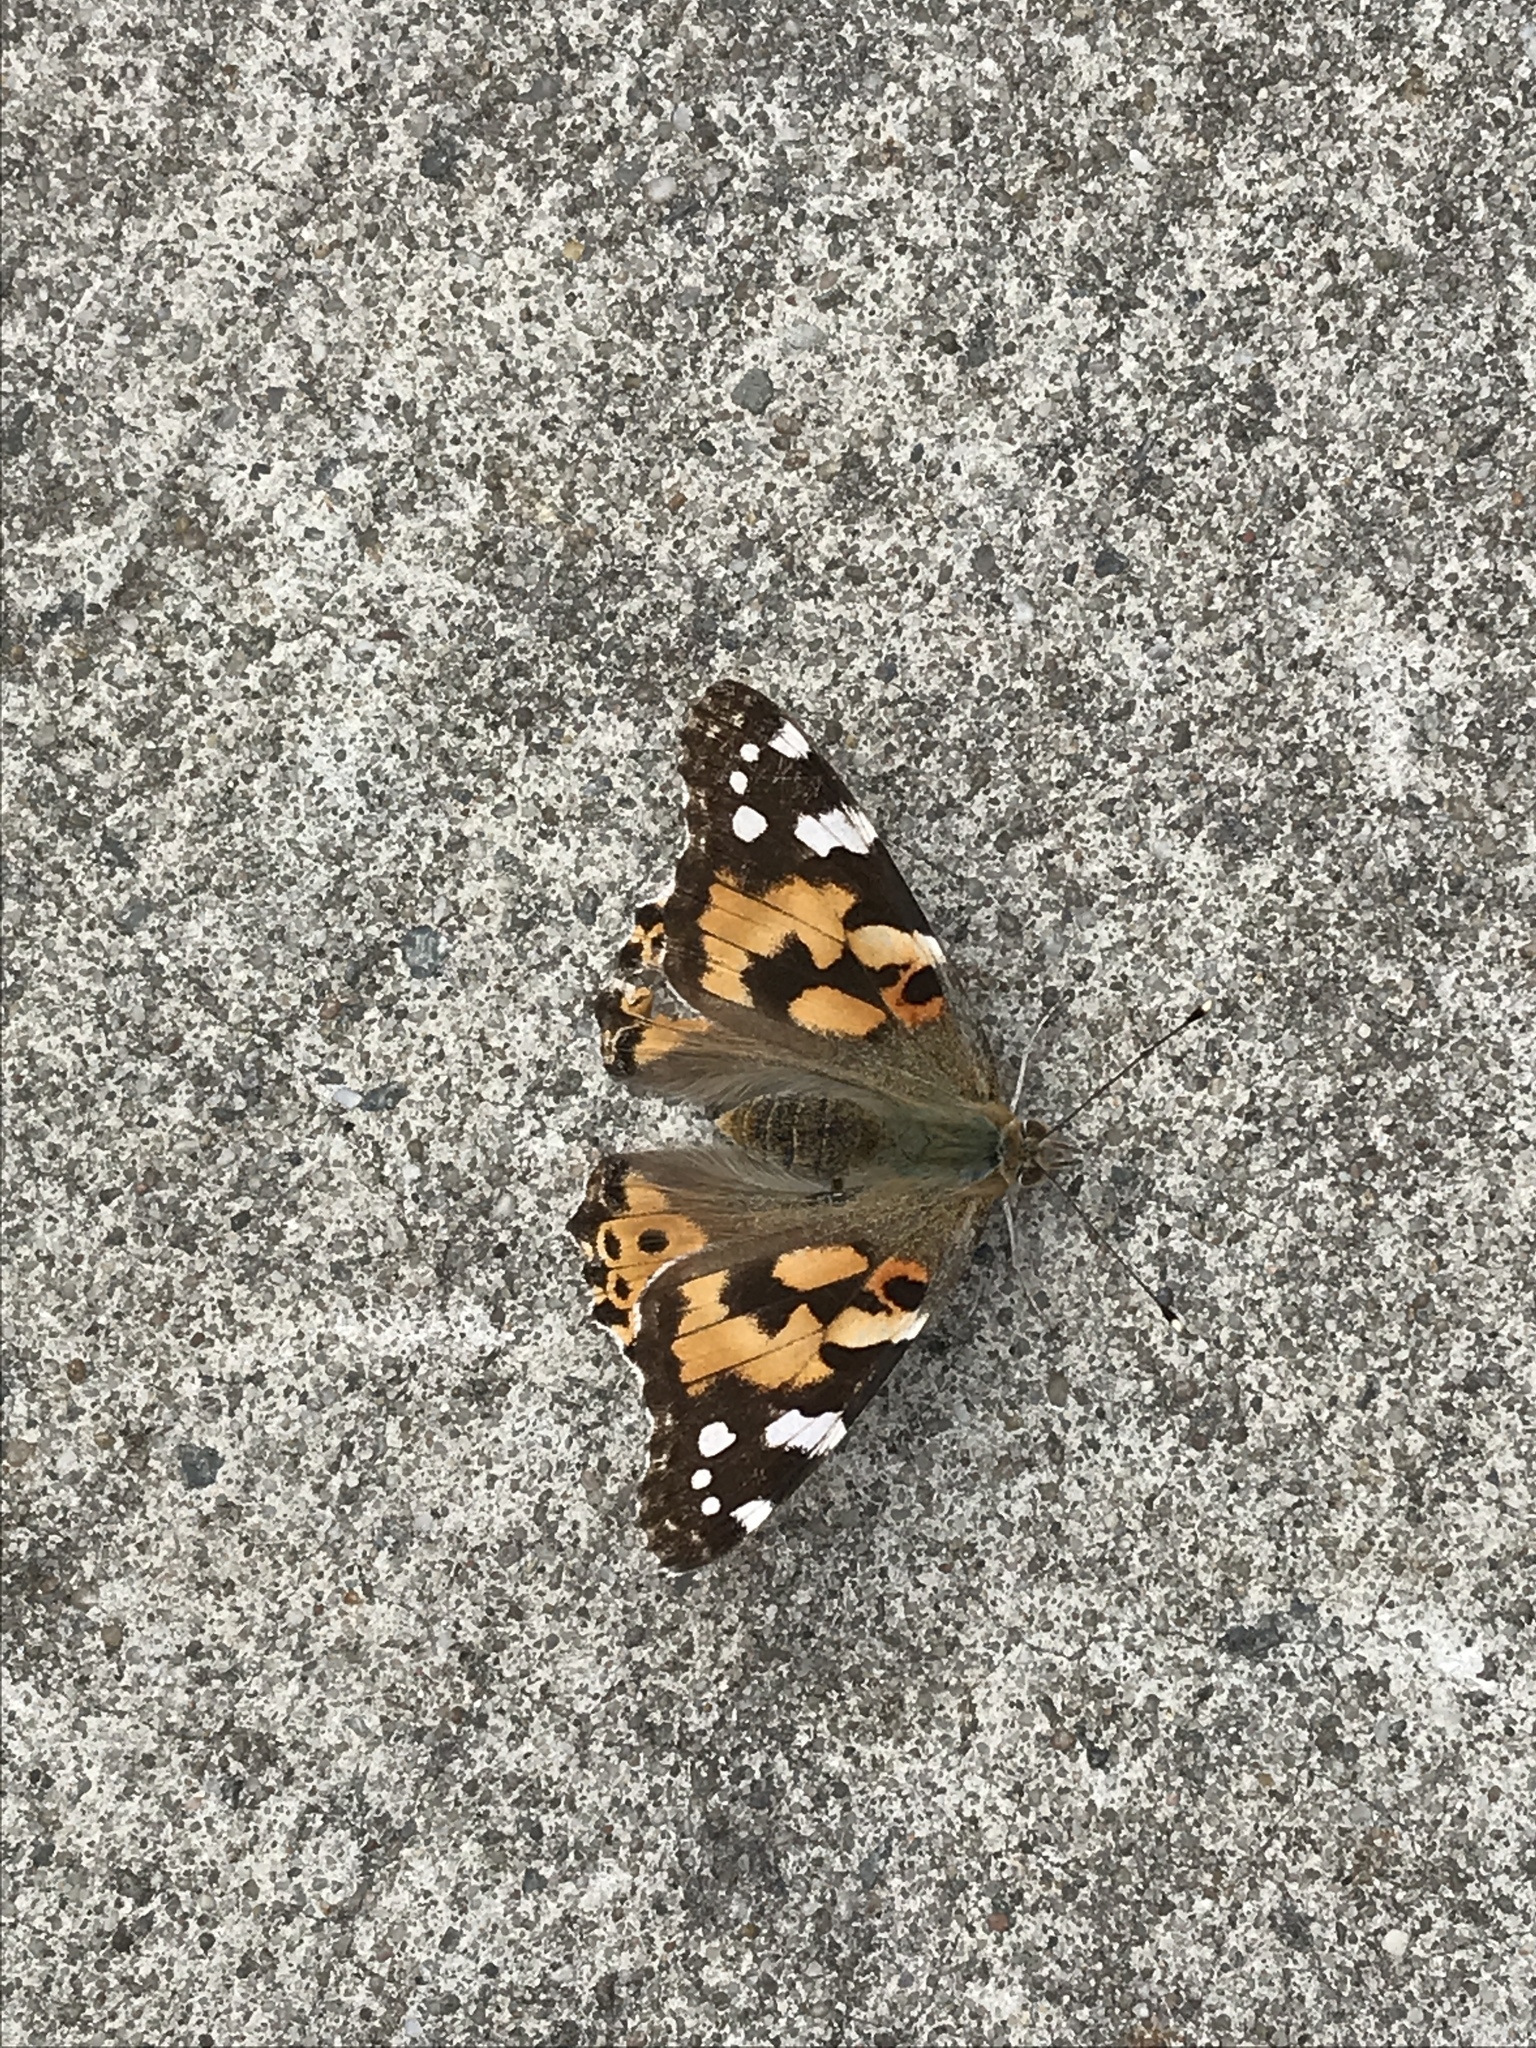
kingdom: Animalia
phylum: Arthropoda
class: Insecta
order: Lepidoptera
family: Nymphalidae
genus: Vanessa
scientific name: Vanessa cardui
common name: Painted lady
